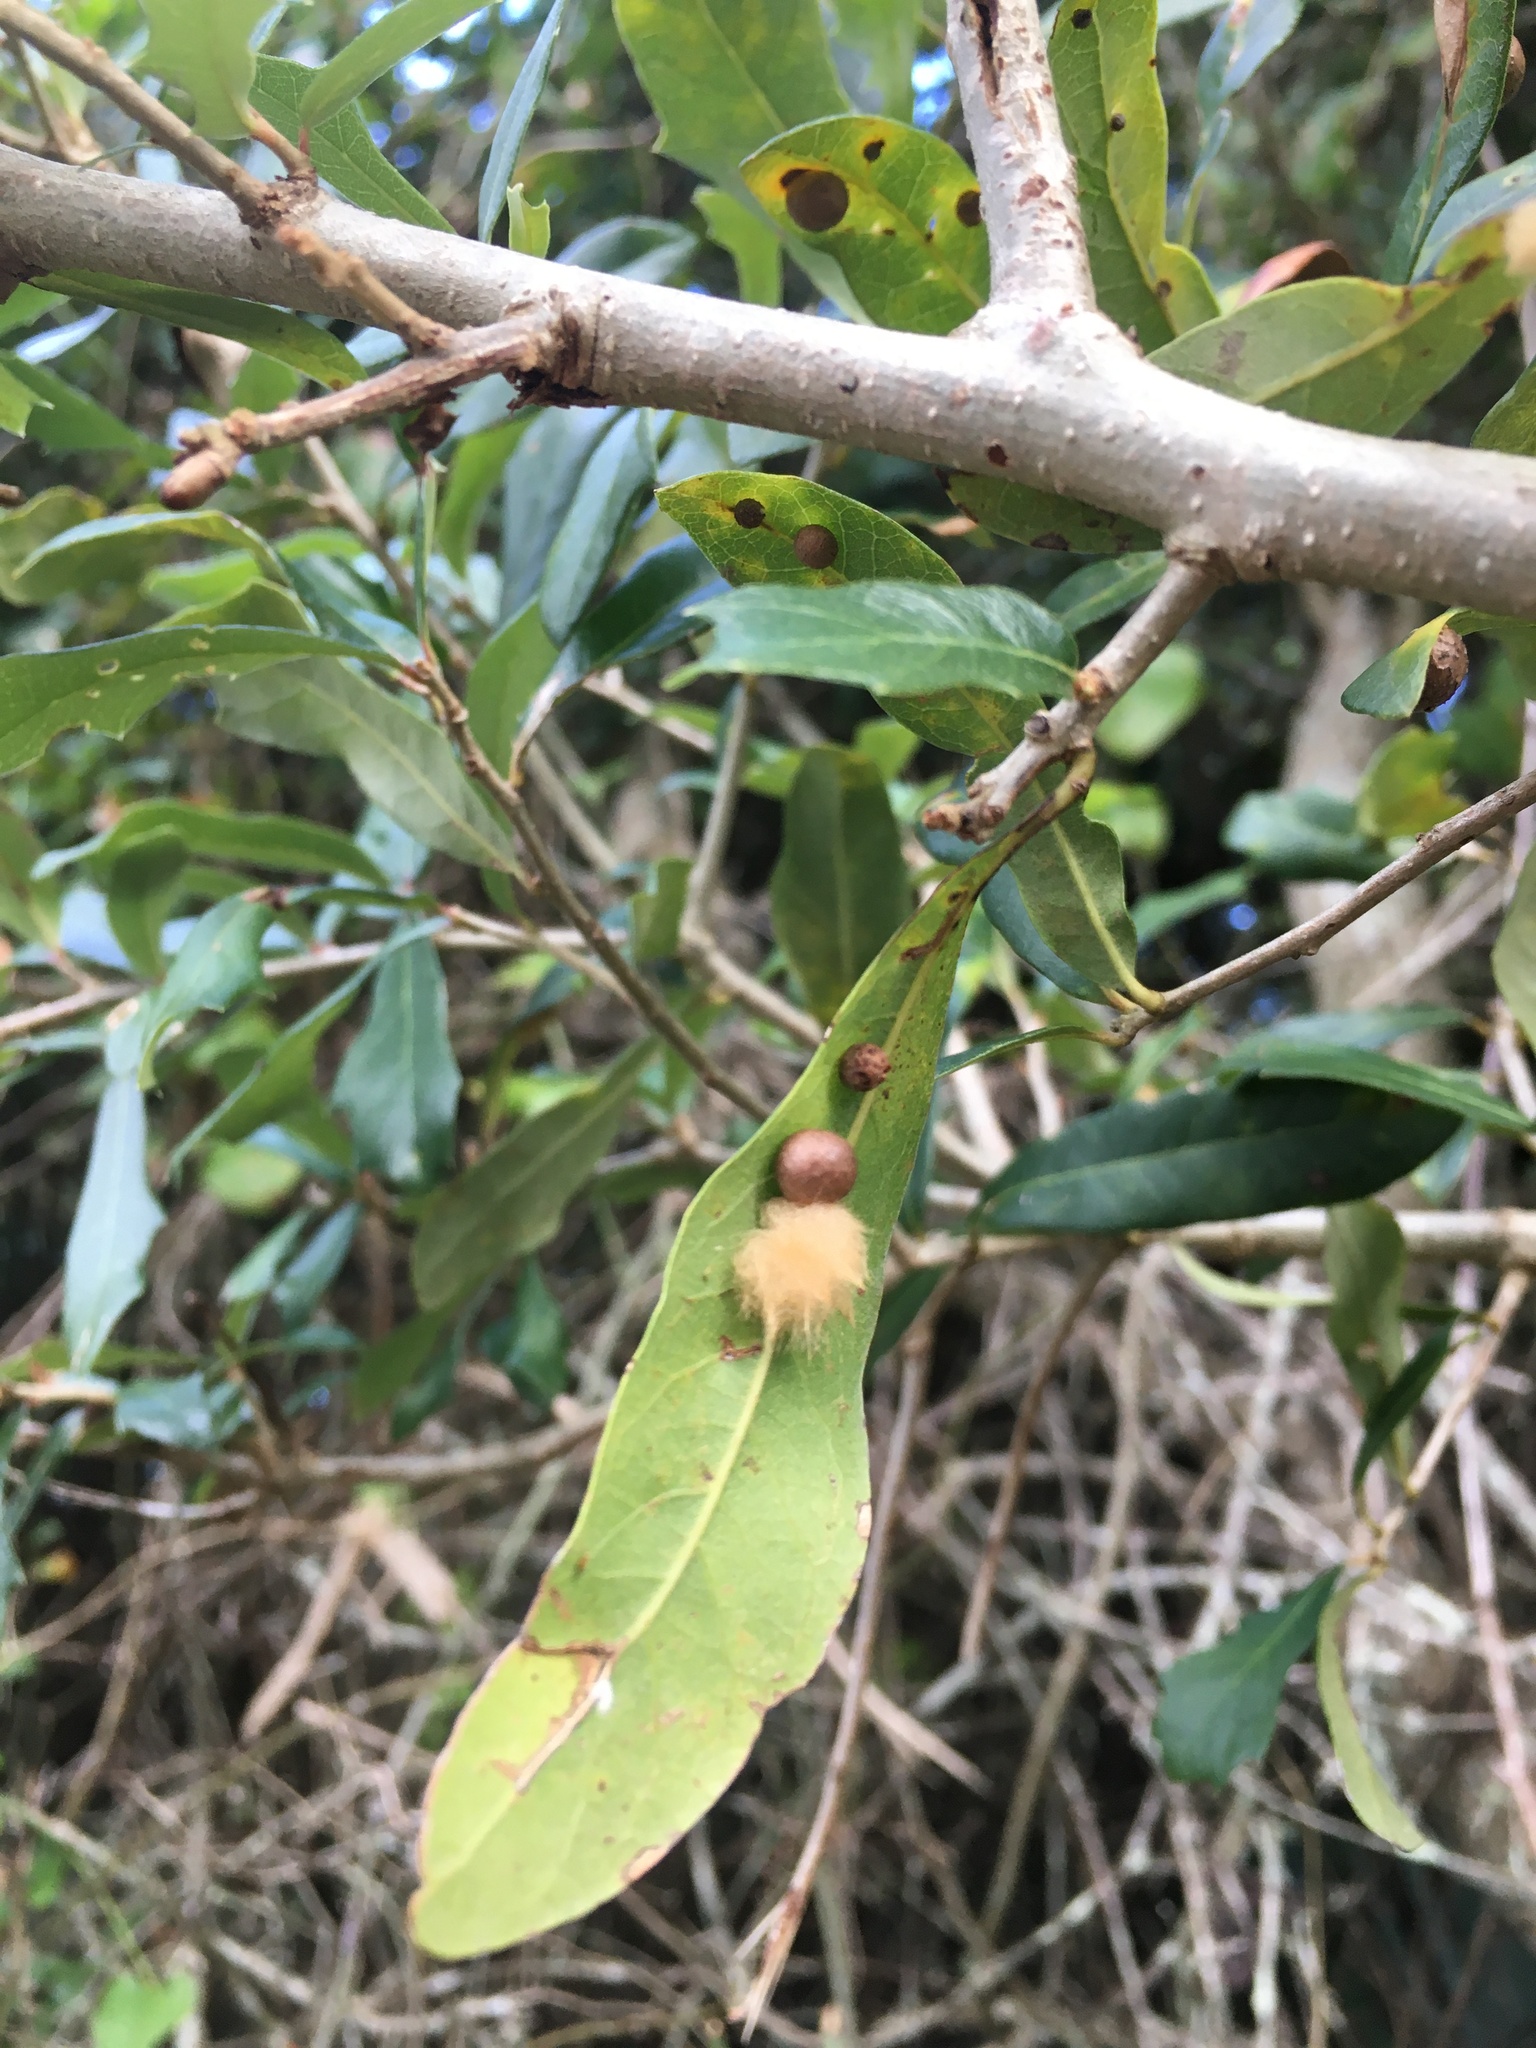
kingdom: Animalia
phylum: Arthropoda
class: Insecta
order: Hymenoptera
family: Cynipidae
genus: Andricus
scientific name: Andricus Druon quercuslanigerum
